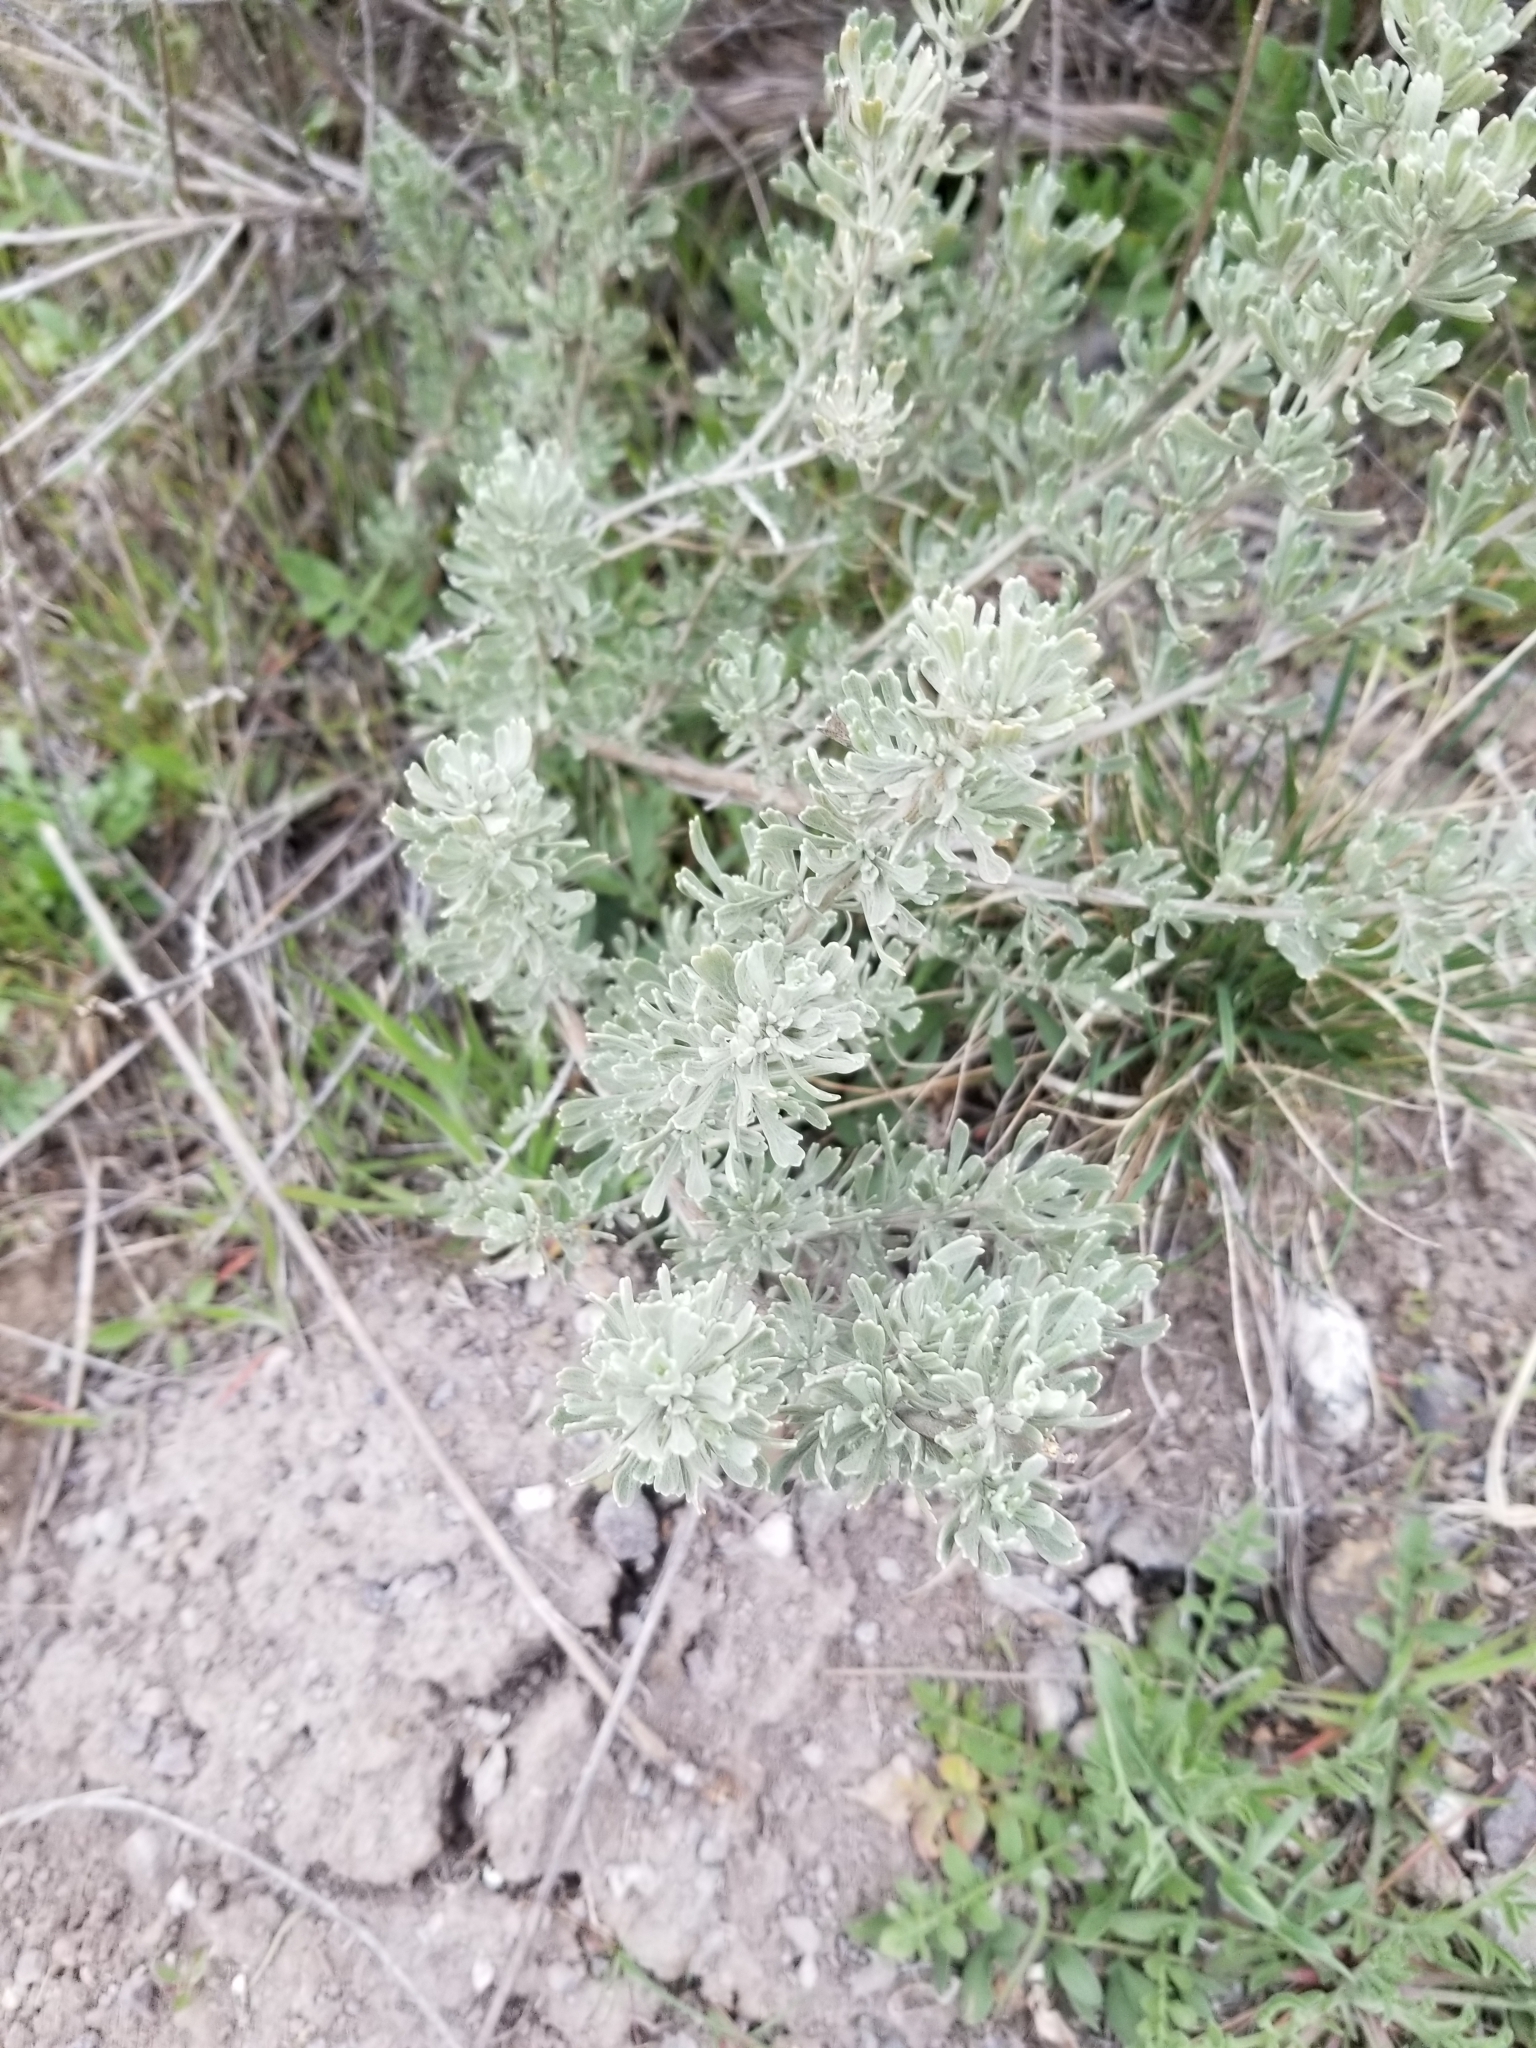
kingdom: Plantae
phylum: Tracheophyta
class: Magnoliopsida
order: Asterales
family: Asteraceae
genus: Artemisia
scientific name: Artemisia tridentata
